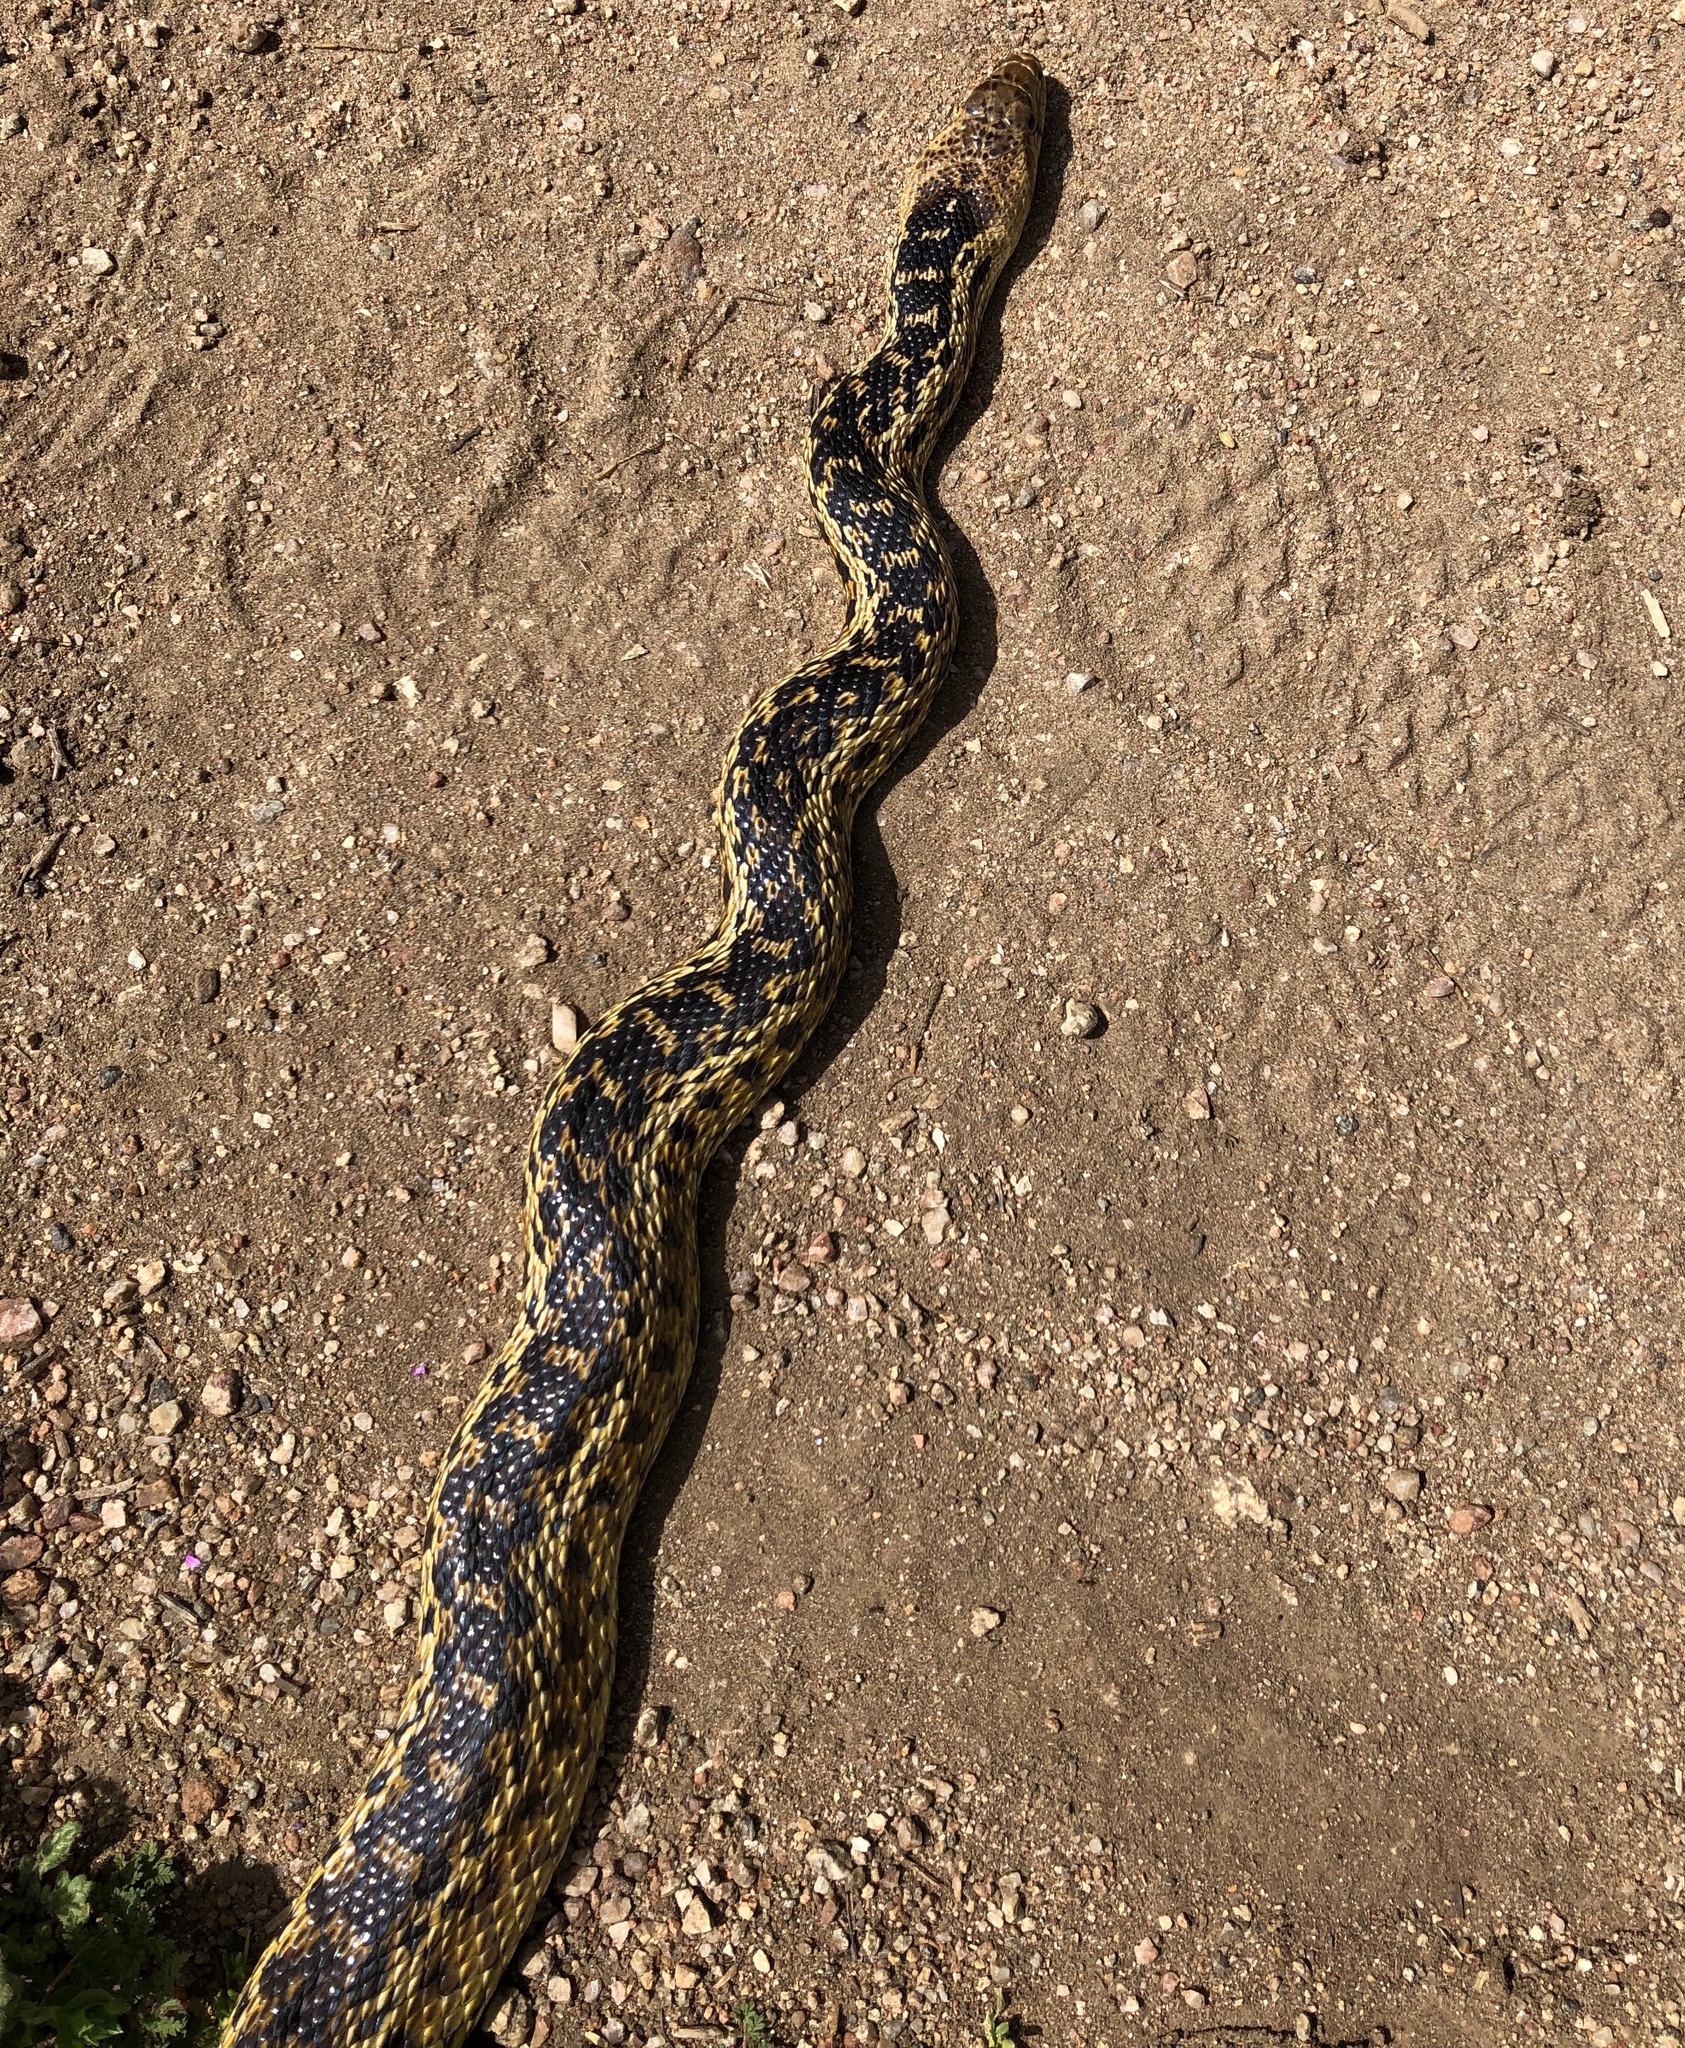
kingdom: Animalia
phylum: Chordata
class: Squamata
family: Colubridae
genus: Pituophis
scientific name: Pituophis catenifer
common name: Gopher snake
